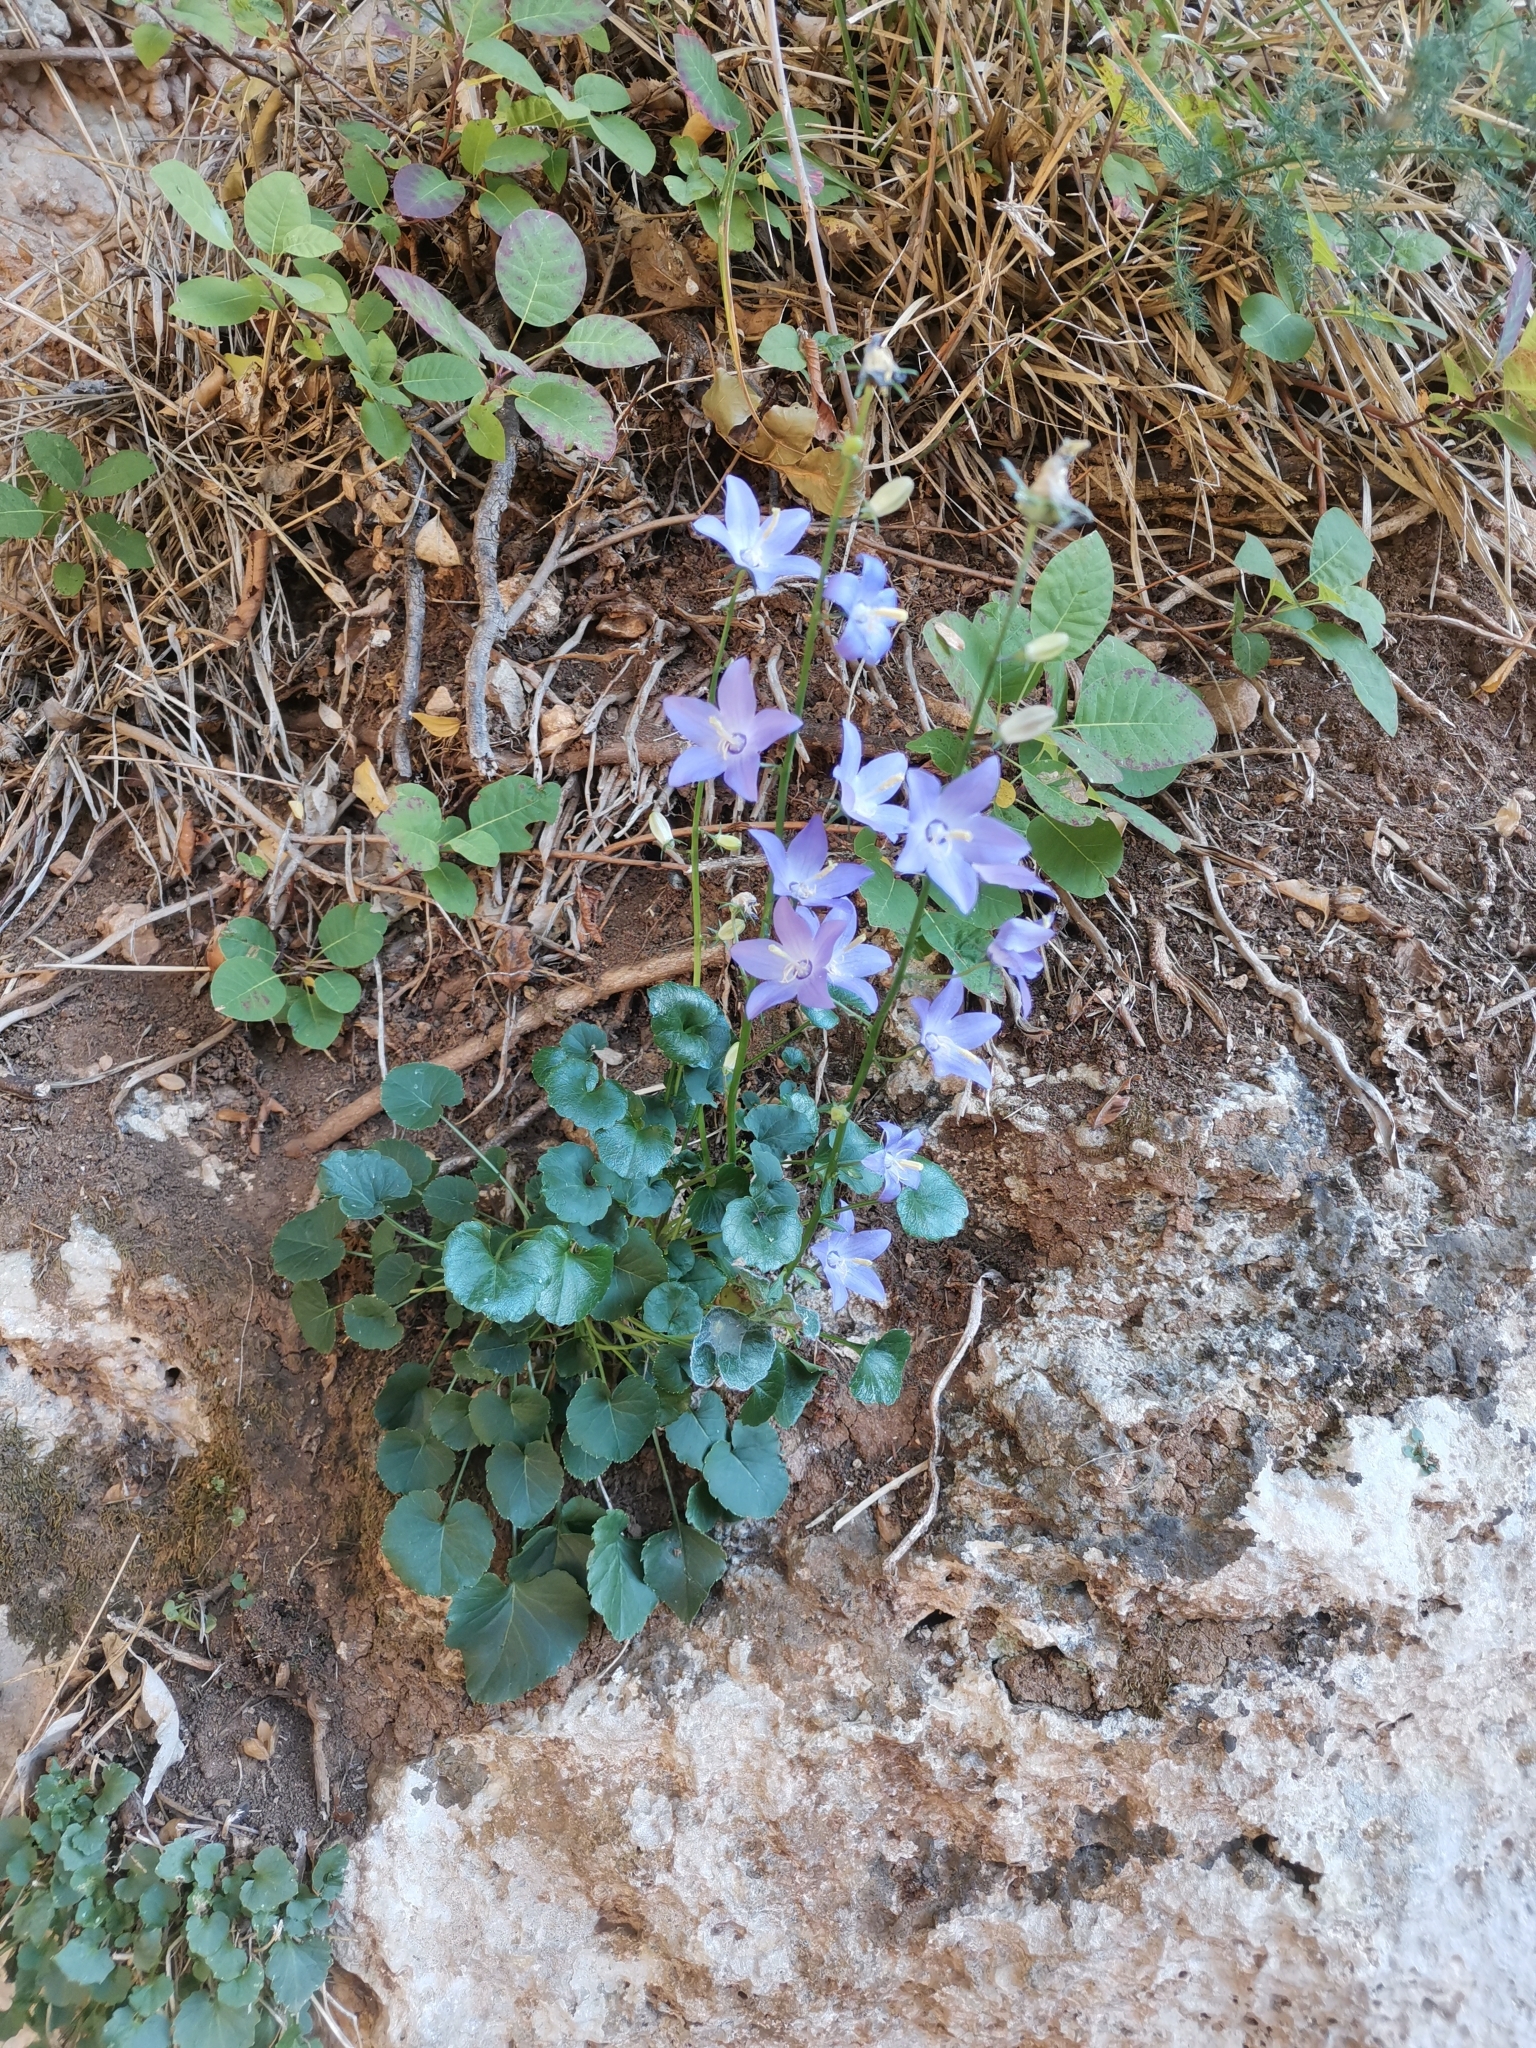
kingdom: Plantae
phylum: Tracheophyta
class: Magnoliopsida
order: Asterales
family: Campanulaceae
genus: Campanula
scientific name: Campanula pyramidalis
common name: Chimney bellflower
